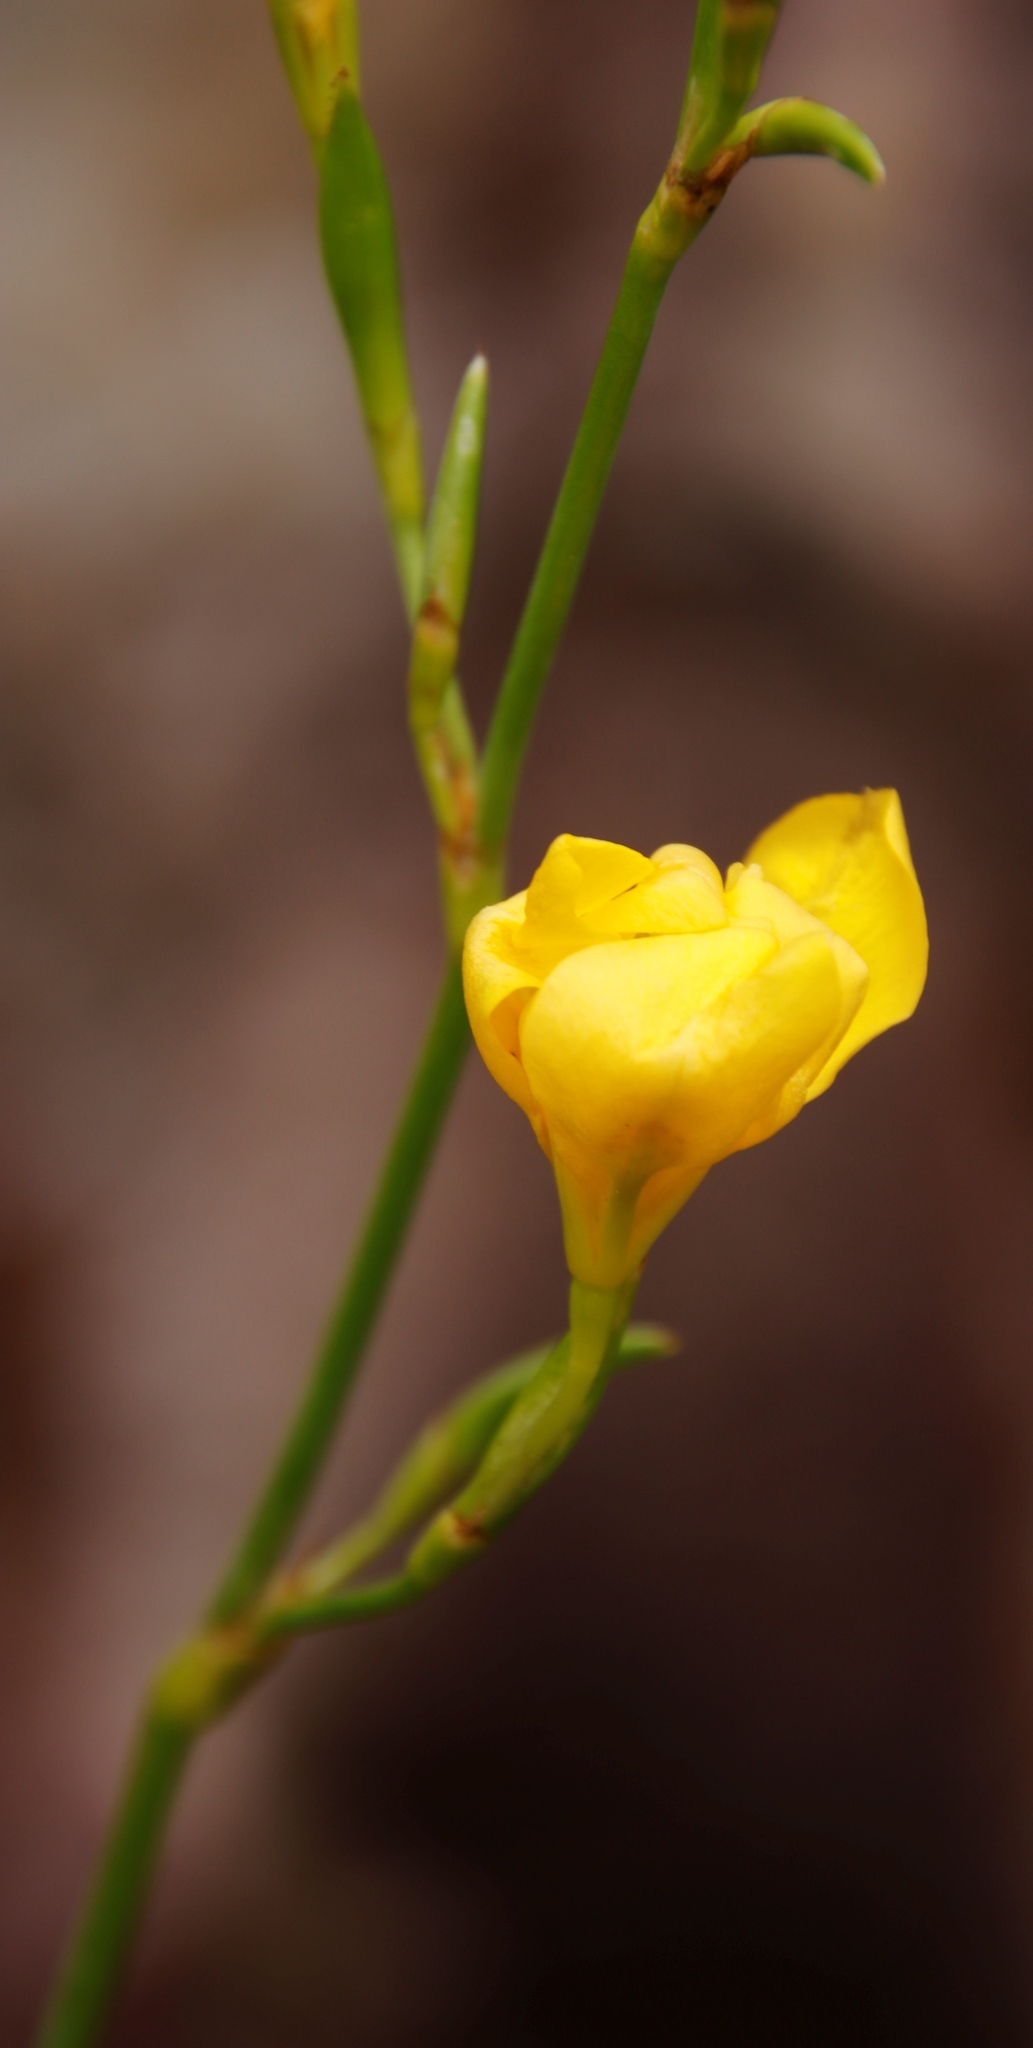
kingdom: Plantae
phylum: Tracheophyta
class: Liliopsida
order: Asparagales
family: Iridaceae
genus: Moraea
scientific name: Moraea ramosissima
